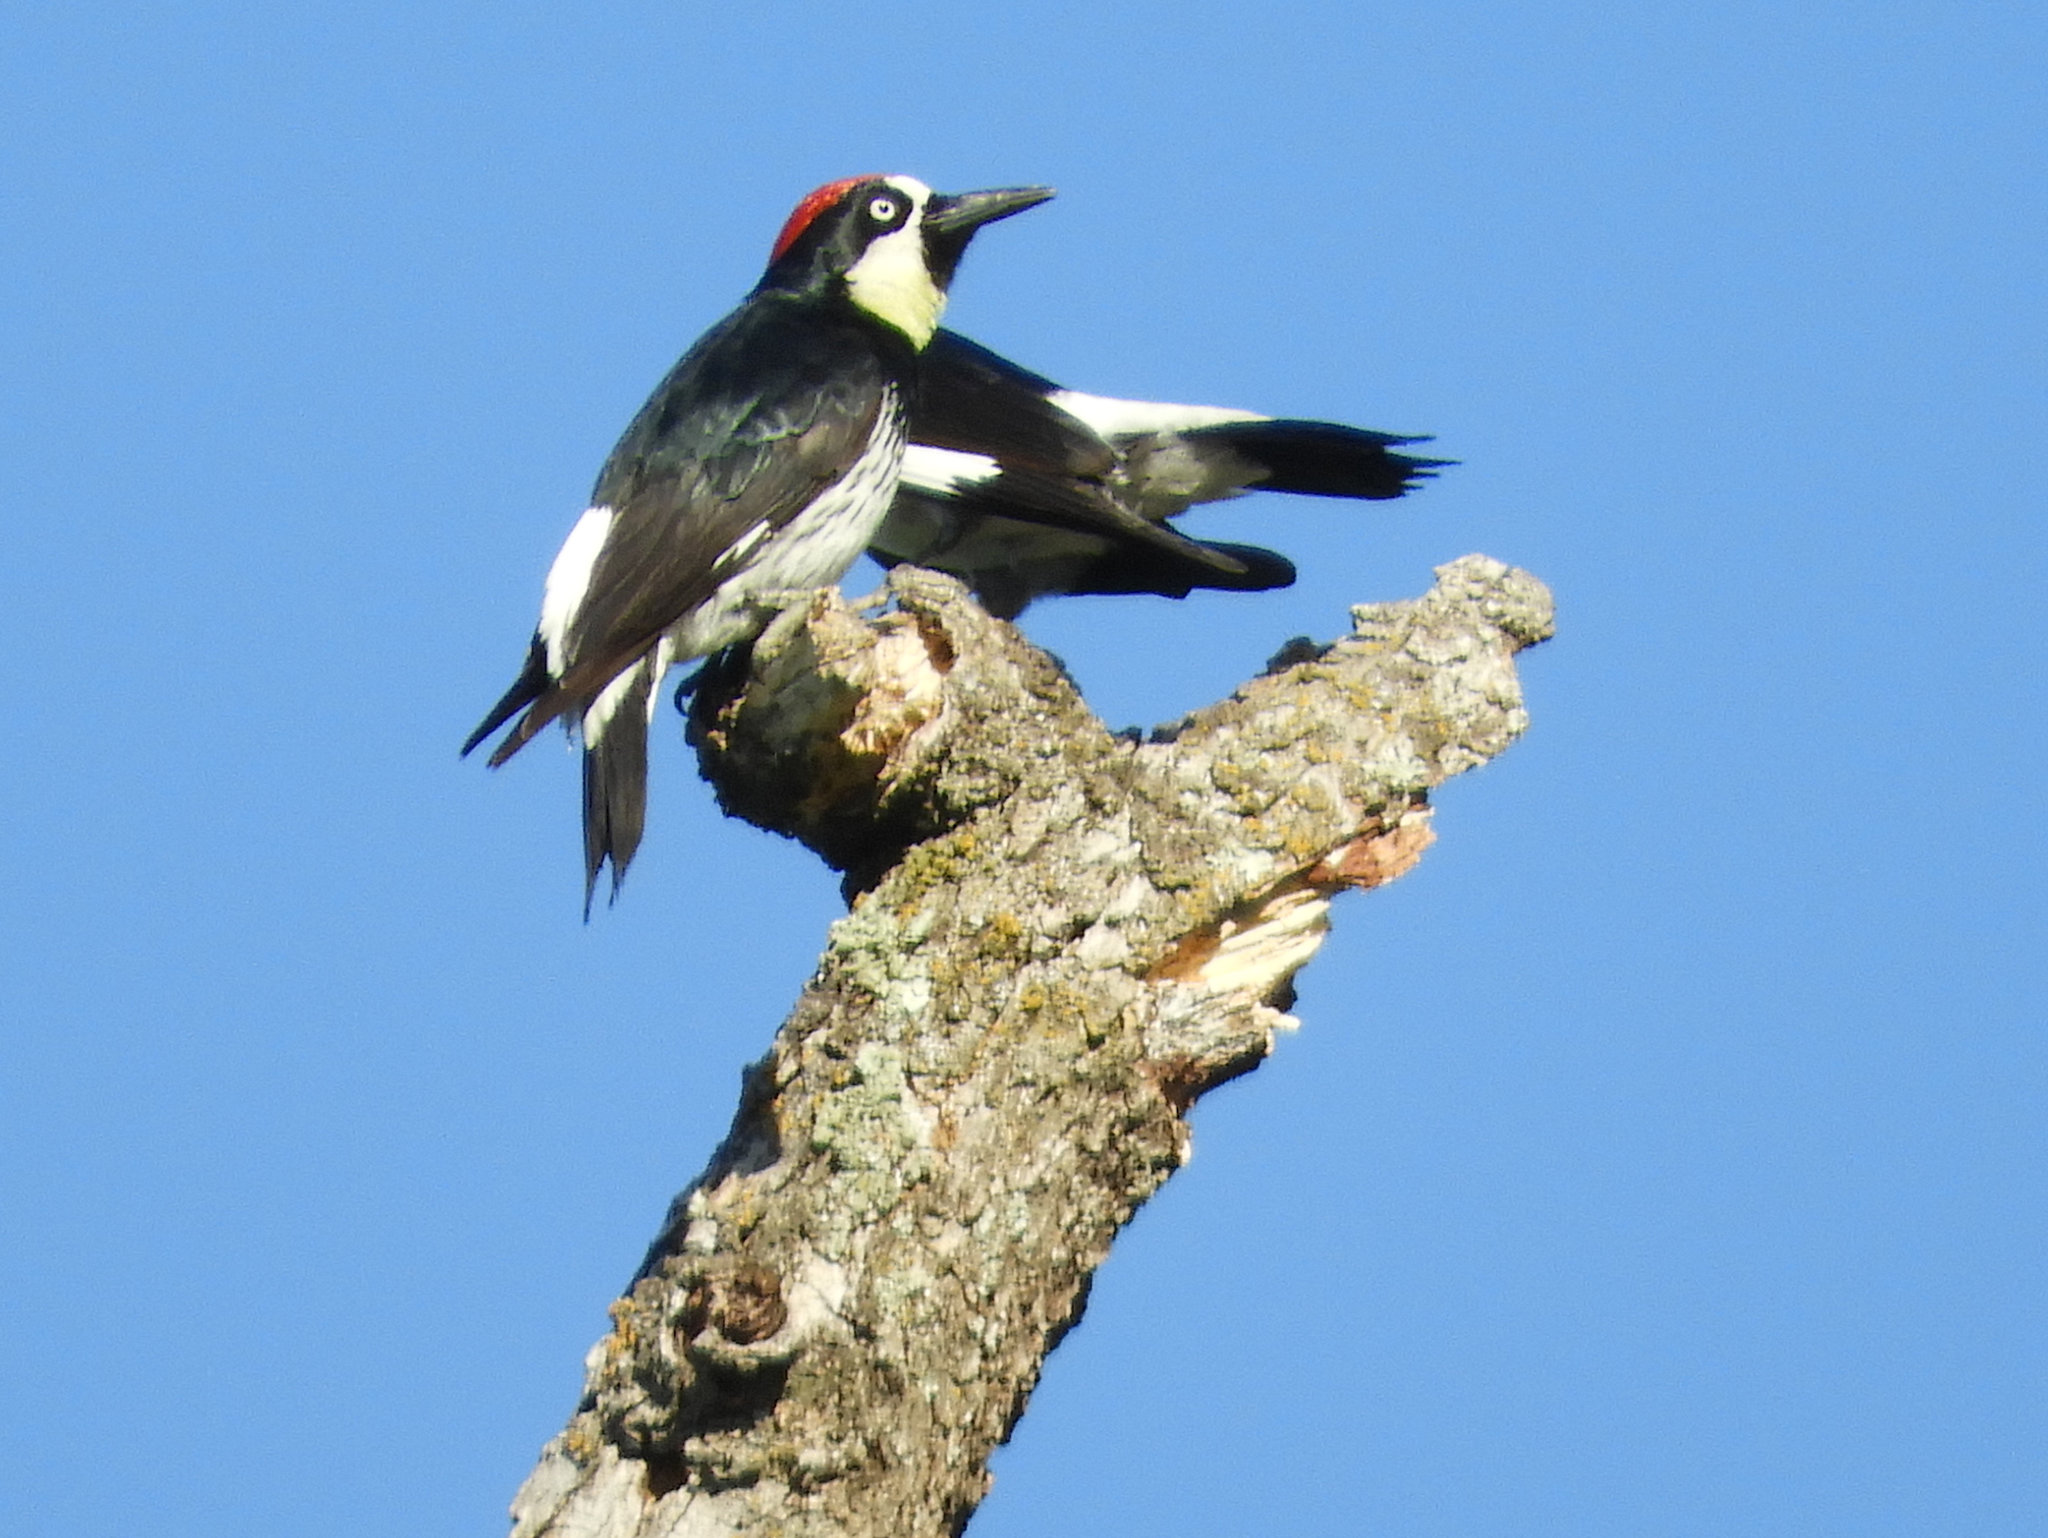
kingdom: Animalia
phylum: Chordata
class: Aves
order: Piciformes
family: Picidae
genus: Melanerpes
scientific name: Melanerpes formicivorus
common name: Acorn woodpecker
